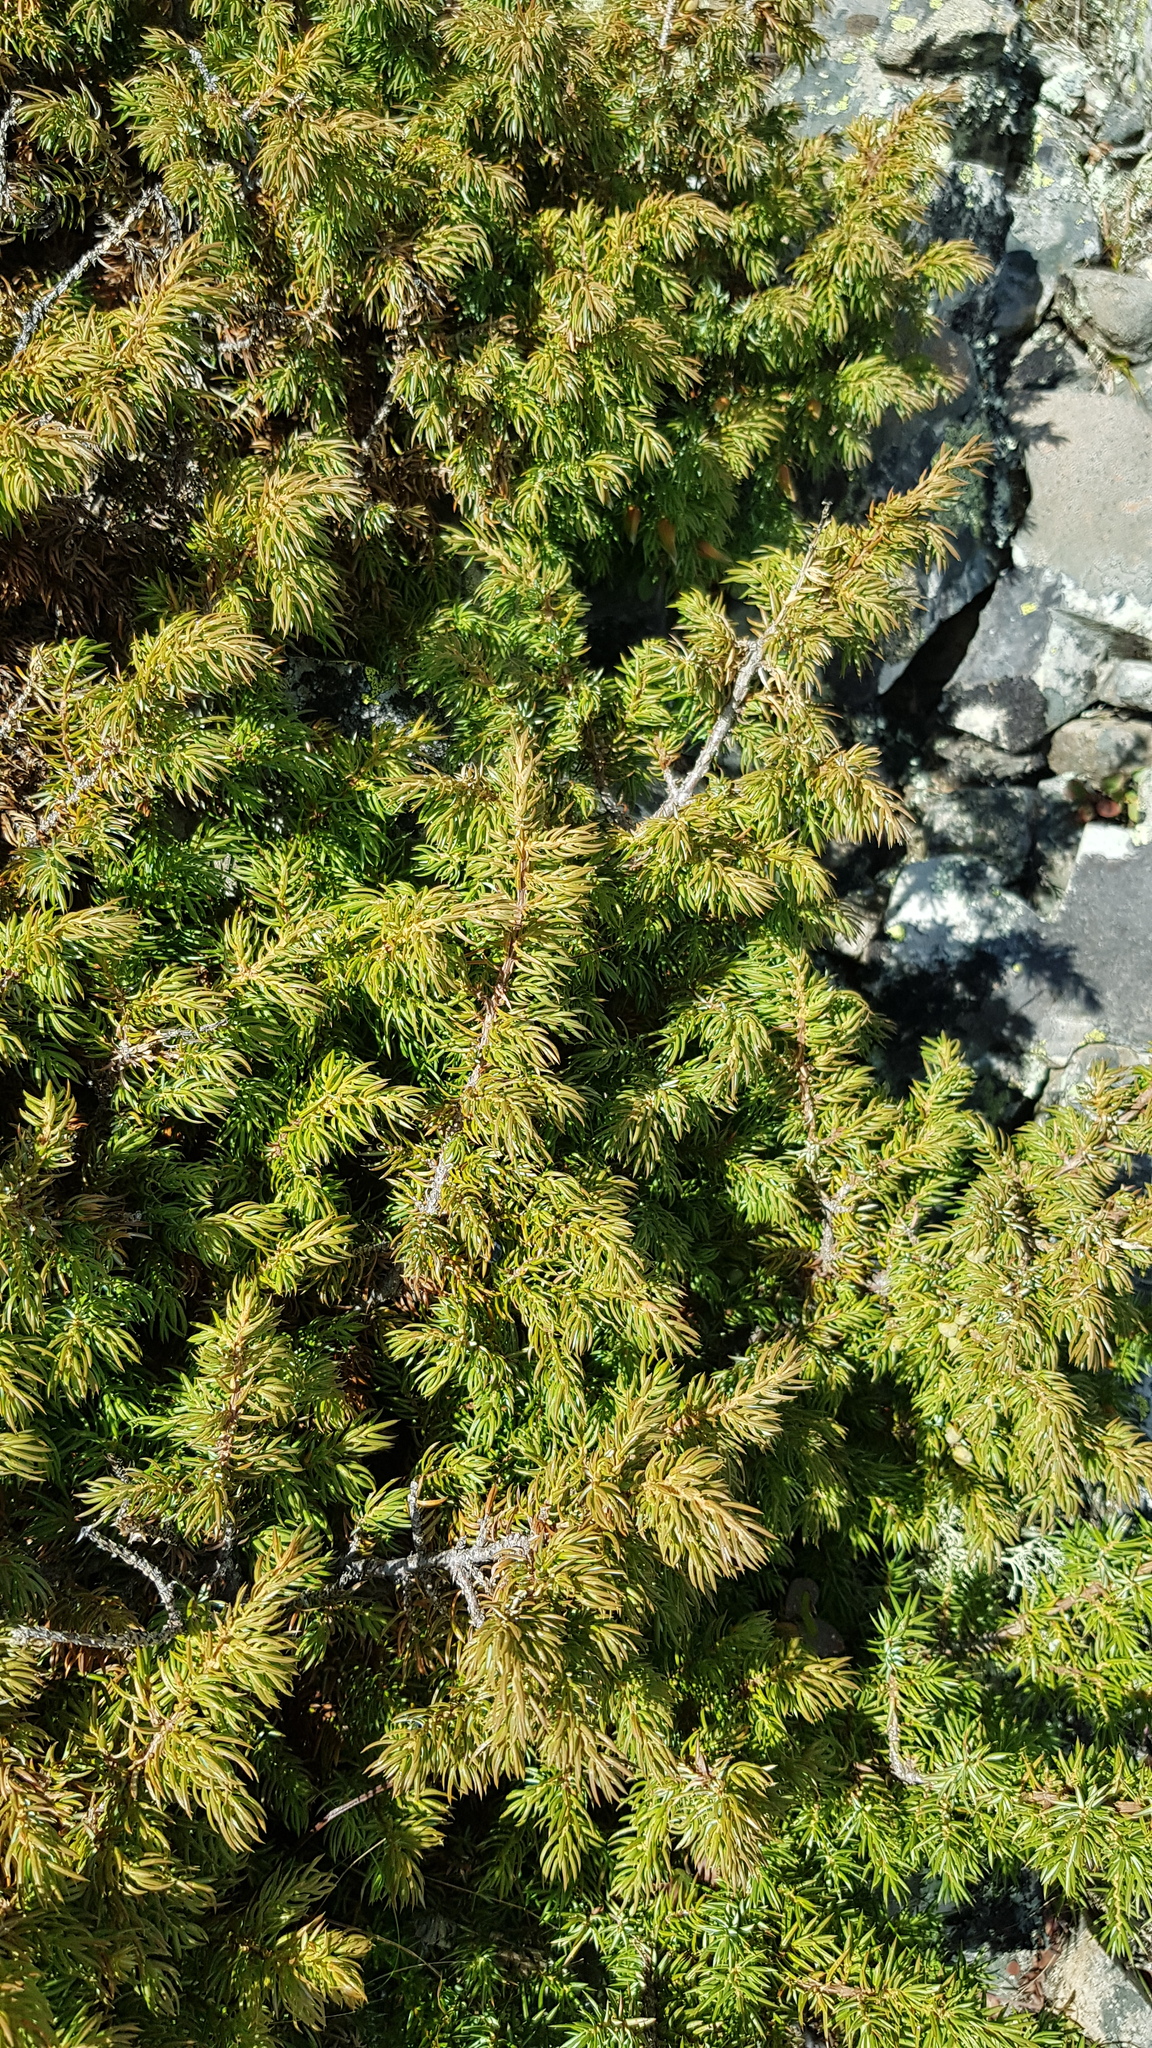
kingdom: Plantae
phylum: Tracheophyta
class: Pinopsida
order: Pinales
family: Cupressaceae
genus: Juniperus
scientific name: Juniperus communis
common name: Common juniper
